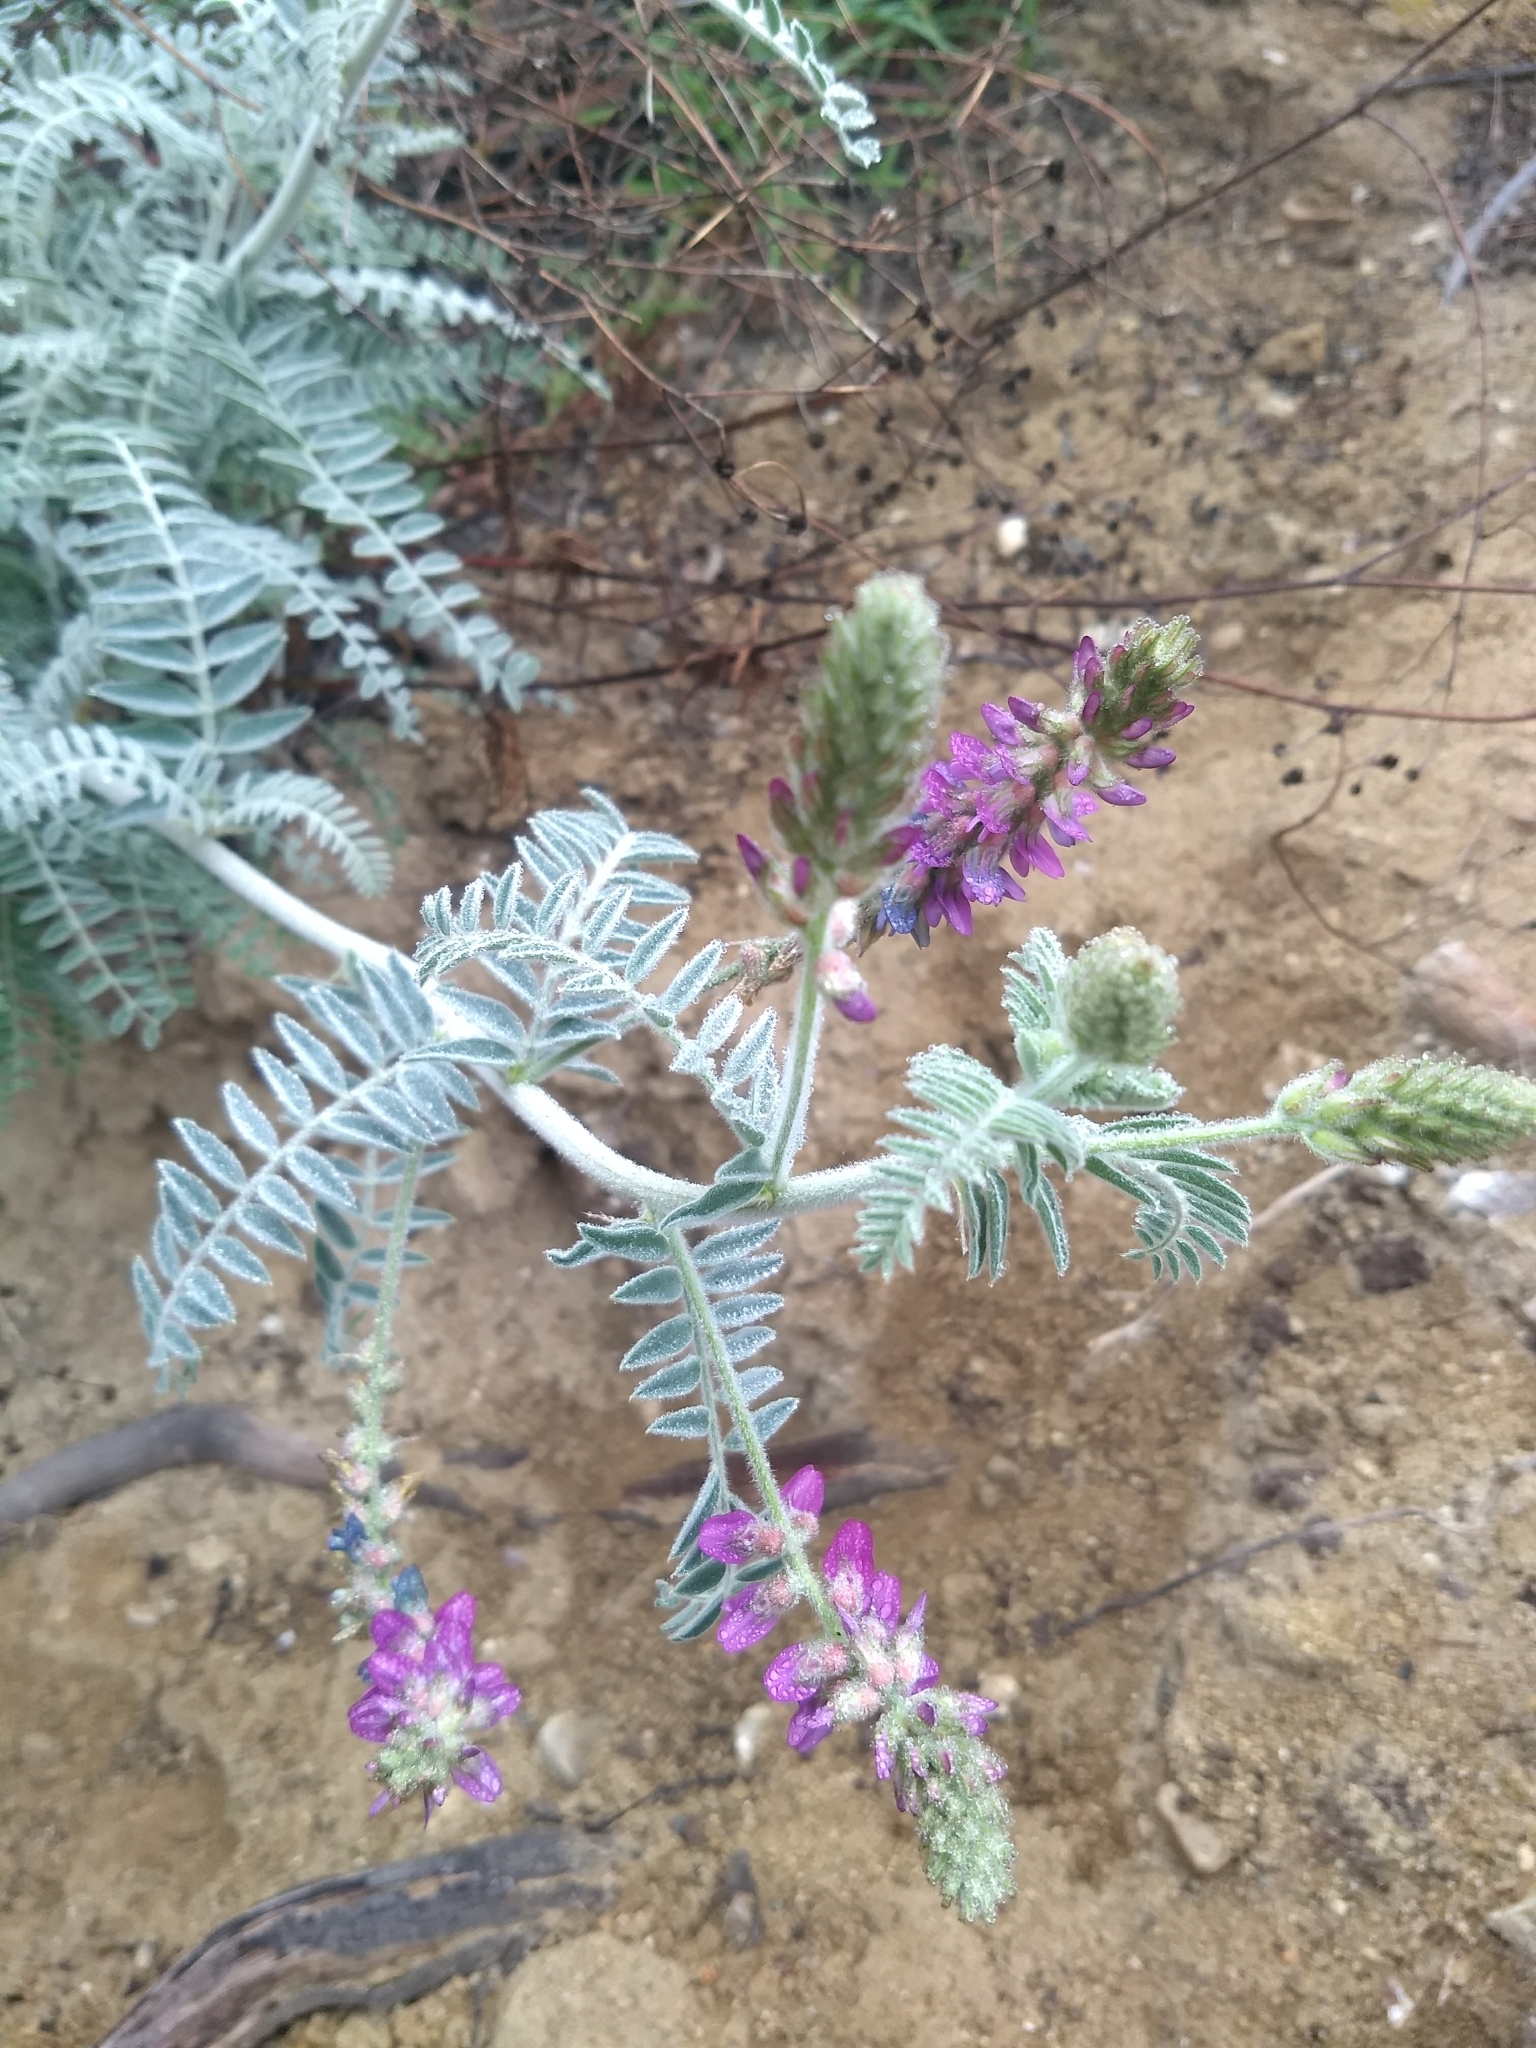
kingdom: Plantae
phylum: Tracheophyta
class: Magnoliopsida
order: Fabales
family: Fabaceae
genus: Astragalus
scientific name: Astragalus brauntonii
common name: Braunton's milk-vetch
